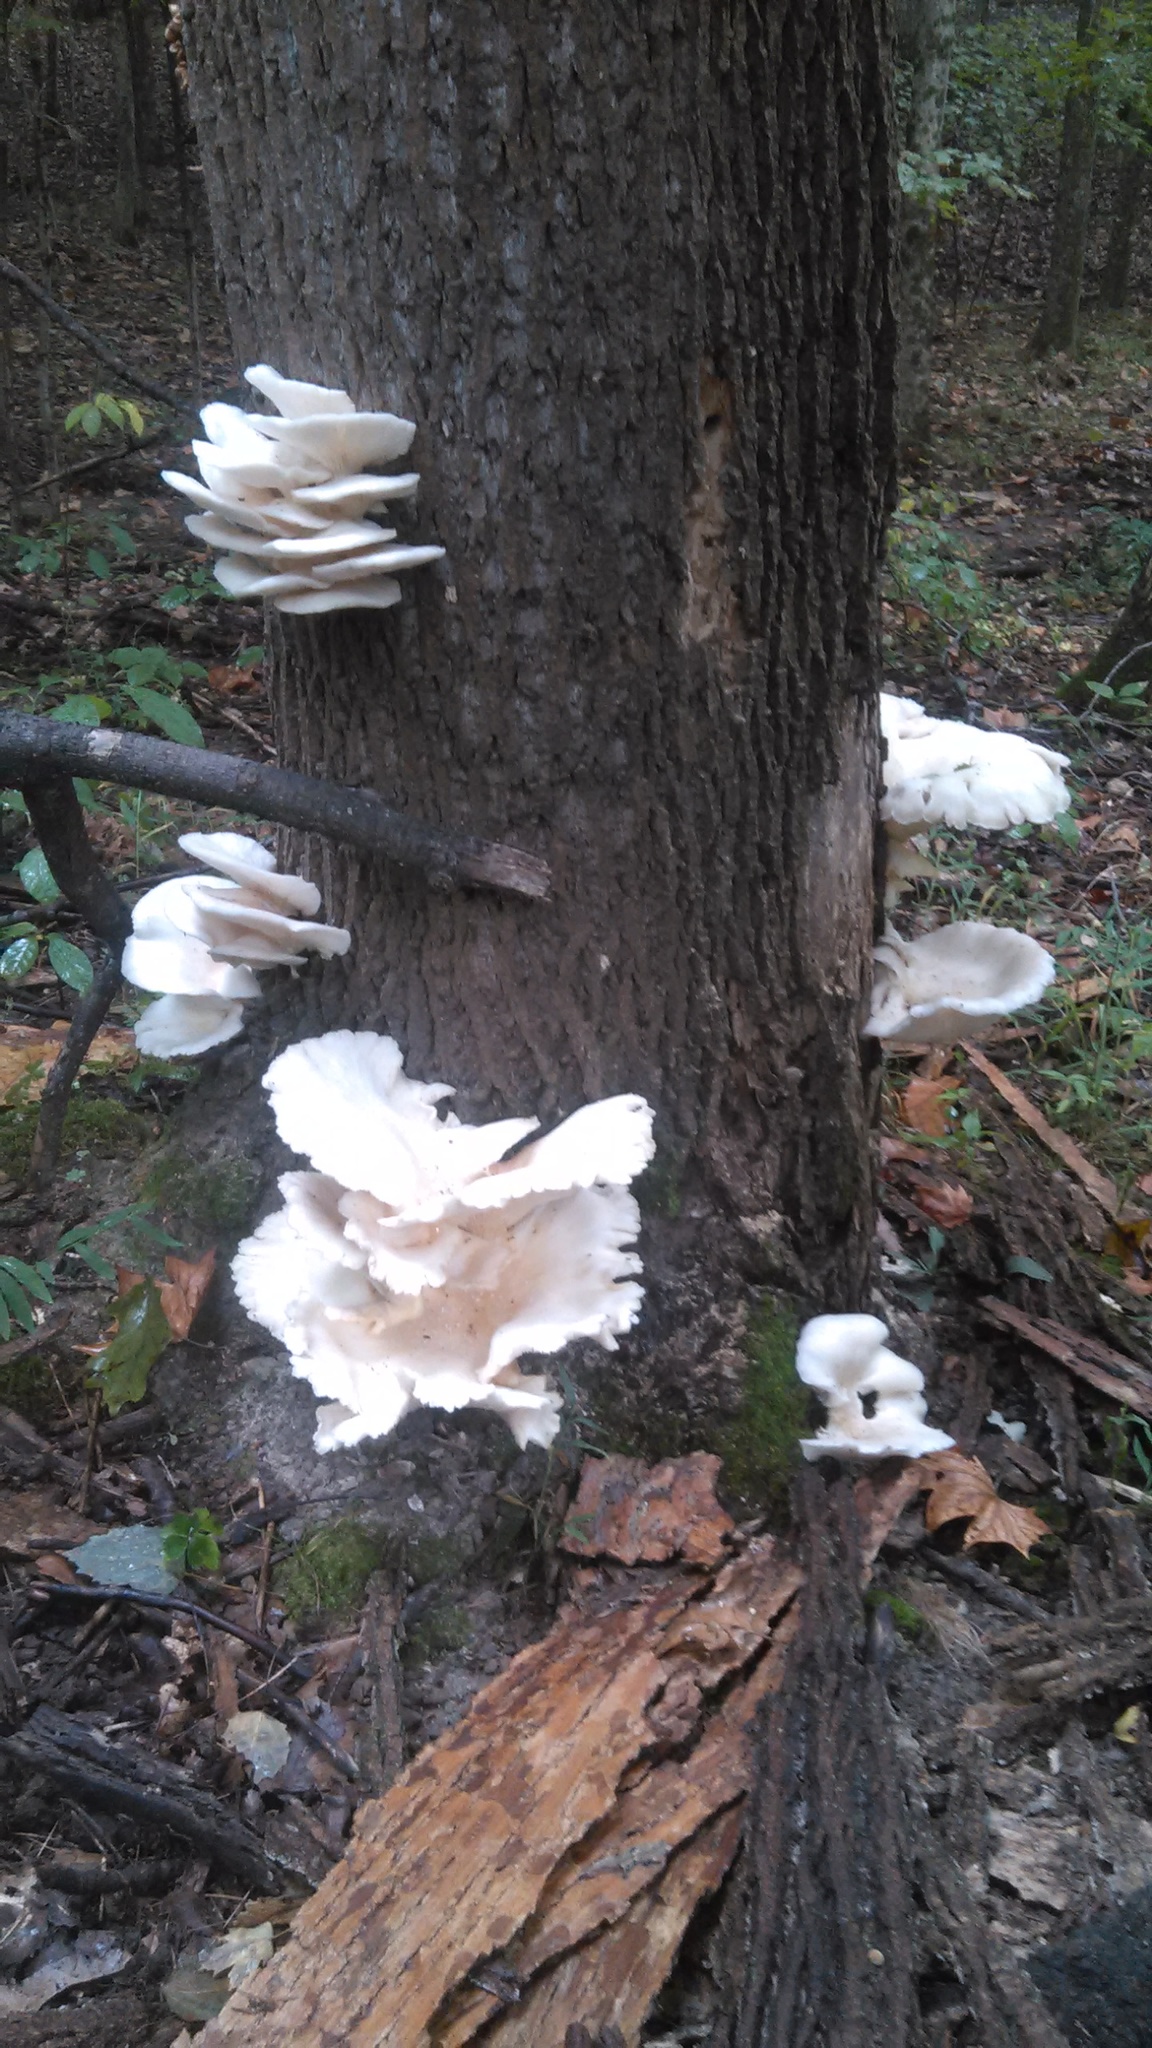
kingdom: Fungi
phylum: Basidiomycota
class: Agaricomycetes
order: Agaricales
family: Pleurotaceae
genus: Pleurotus
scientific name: Pleurotus populinus
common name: Aspen oyster mushroom
